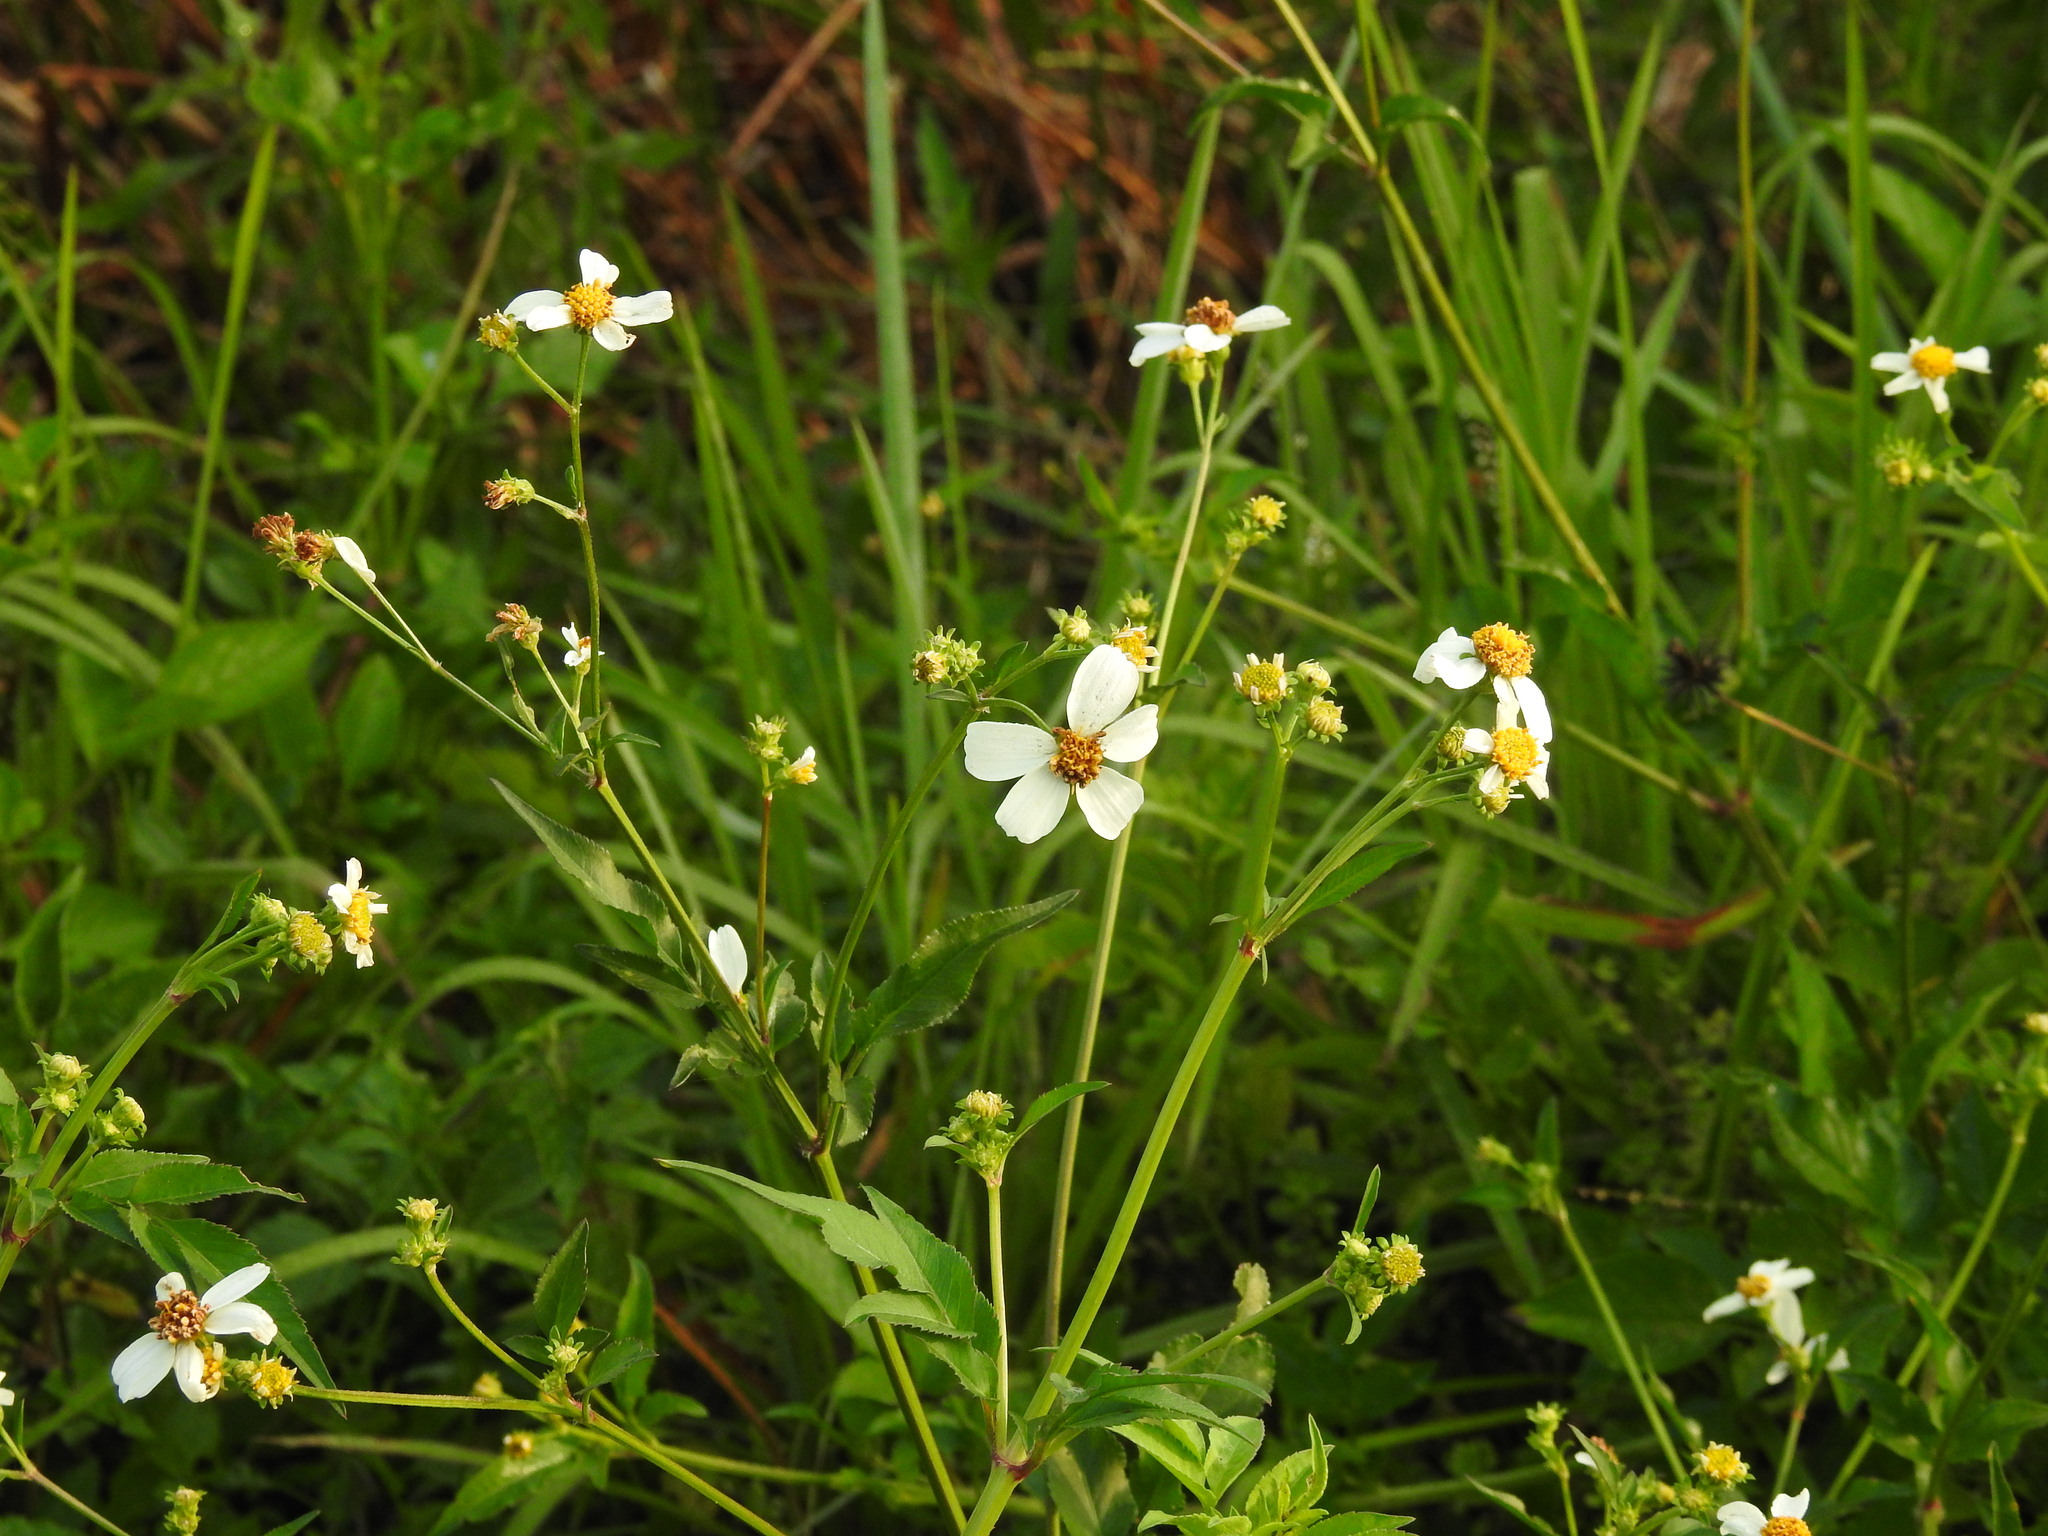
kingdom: Plantae
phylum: Tracheophyta
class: Magnoliopsida
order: Asterales
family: Asteraceae
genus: Bidens
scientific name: Bidens alba
